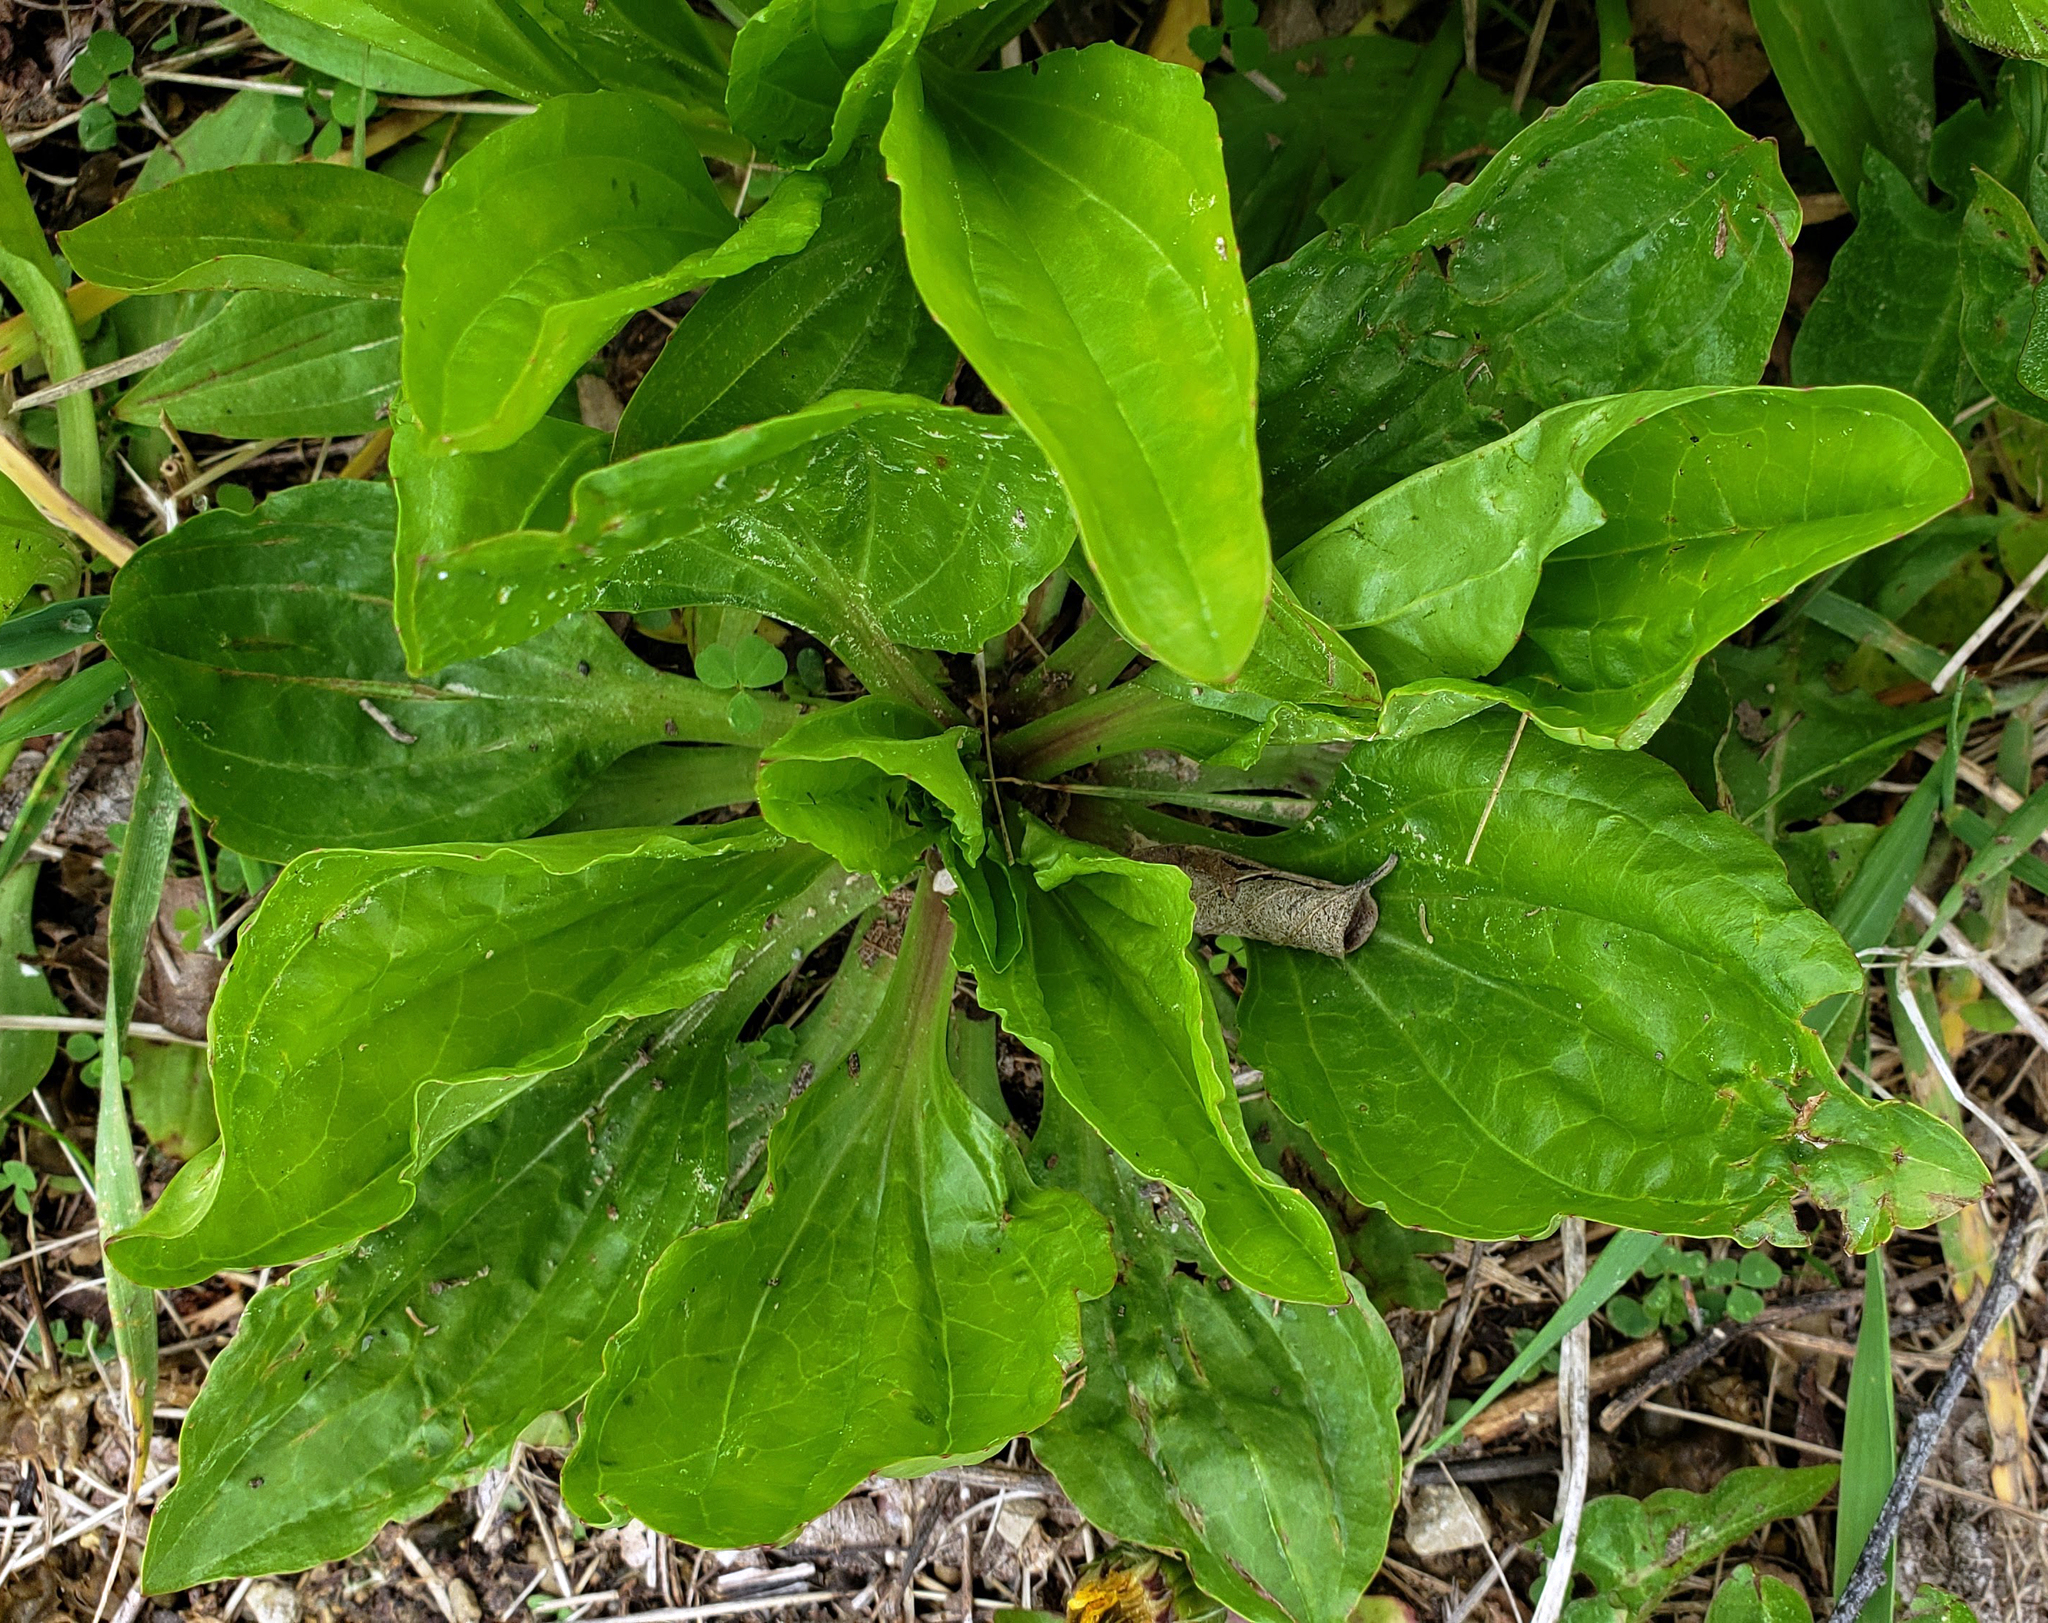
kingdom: Plantae
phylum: Tracheophyta
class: Magnoliopsida
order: Lamiales
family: Plantaginaceae
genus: Plantago
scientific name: Plantago rugelii
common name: American plantain
